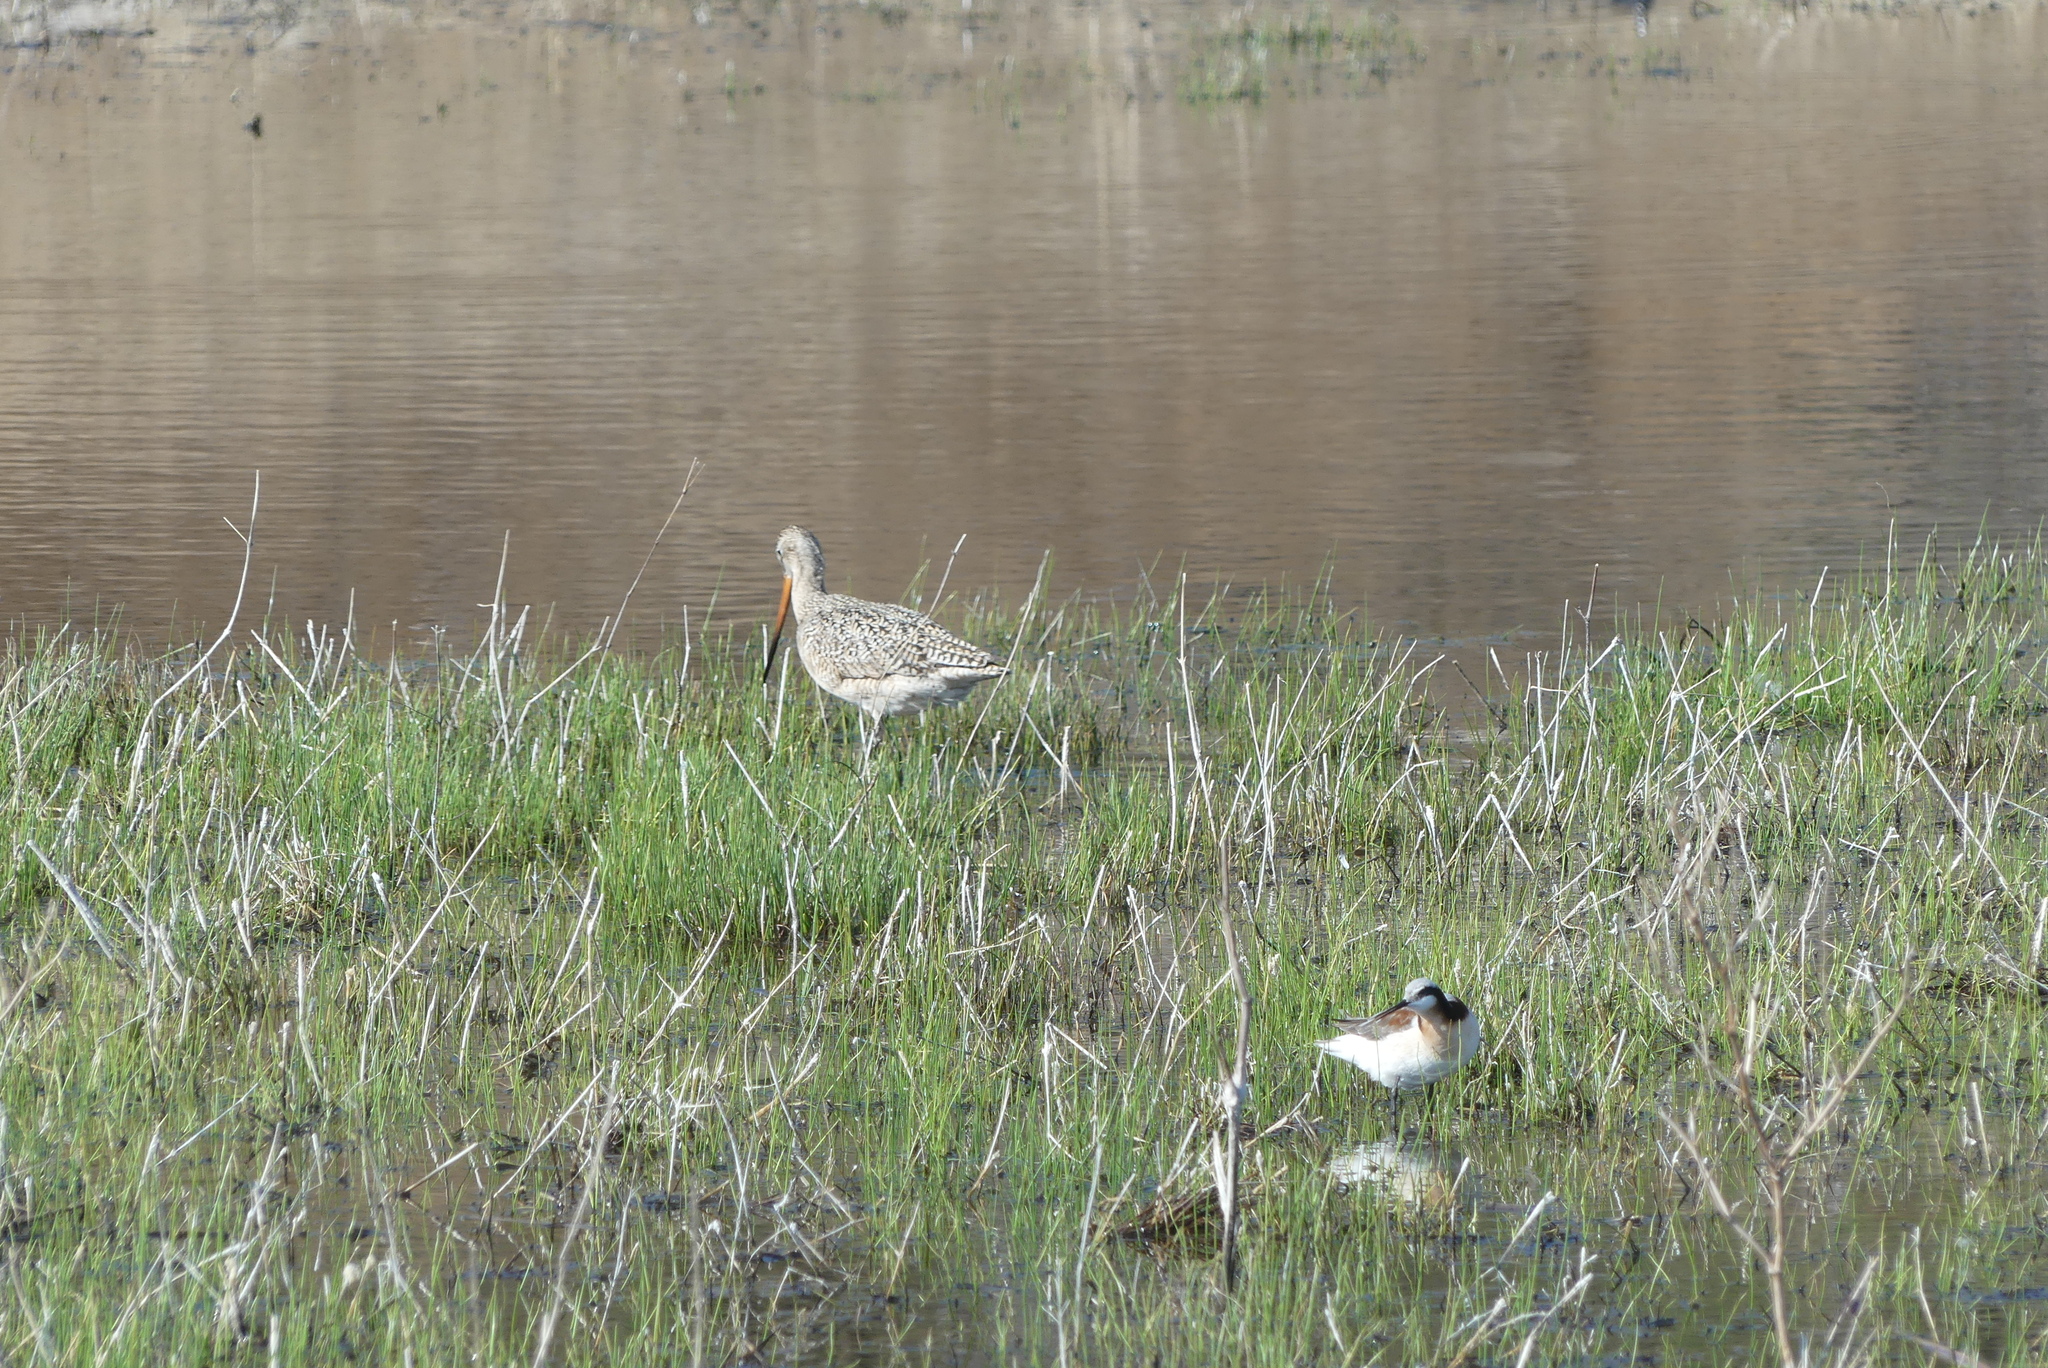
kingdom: Animalia
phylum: Chordata
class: Aves
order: Charadriiformes
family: Scolopacidae
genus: Phalaropus
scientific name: Phalaropus tricolor
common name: Wilson's phalarope
